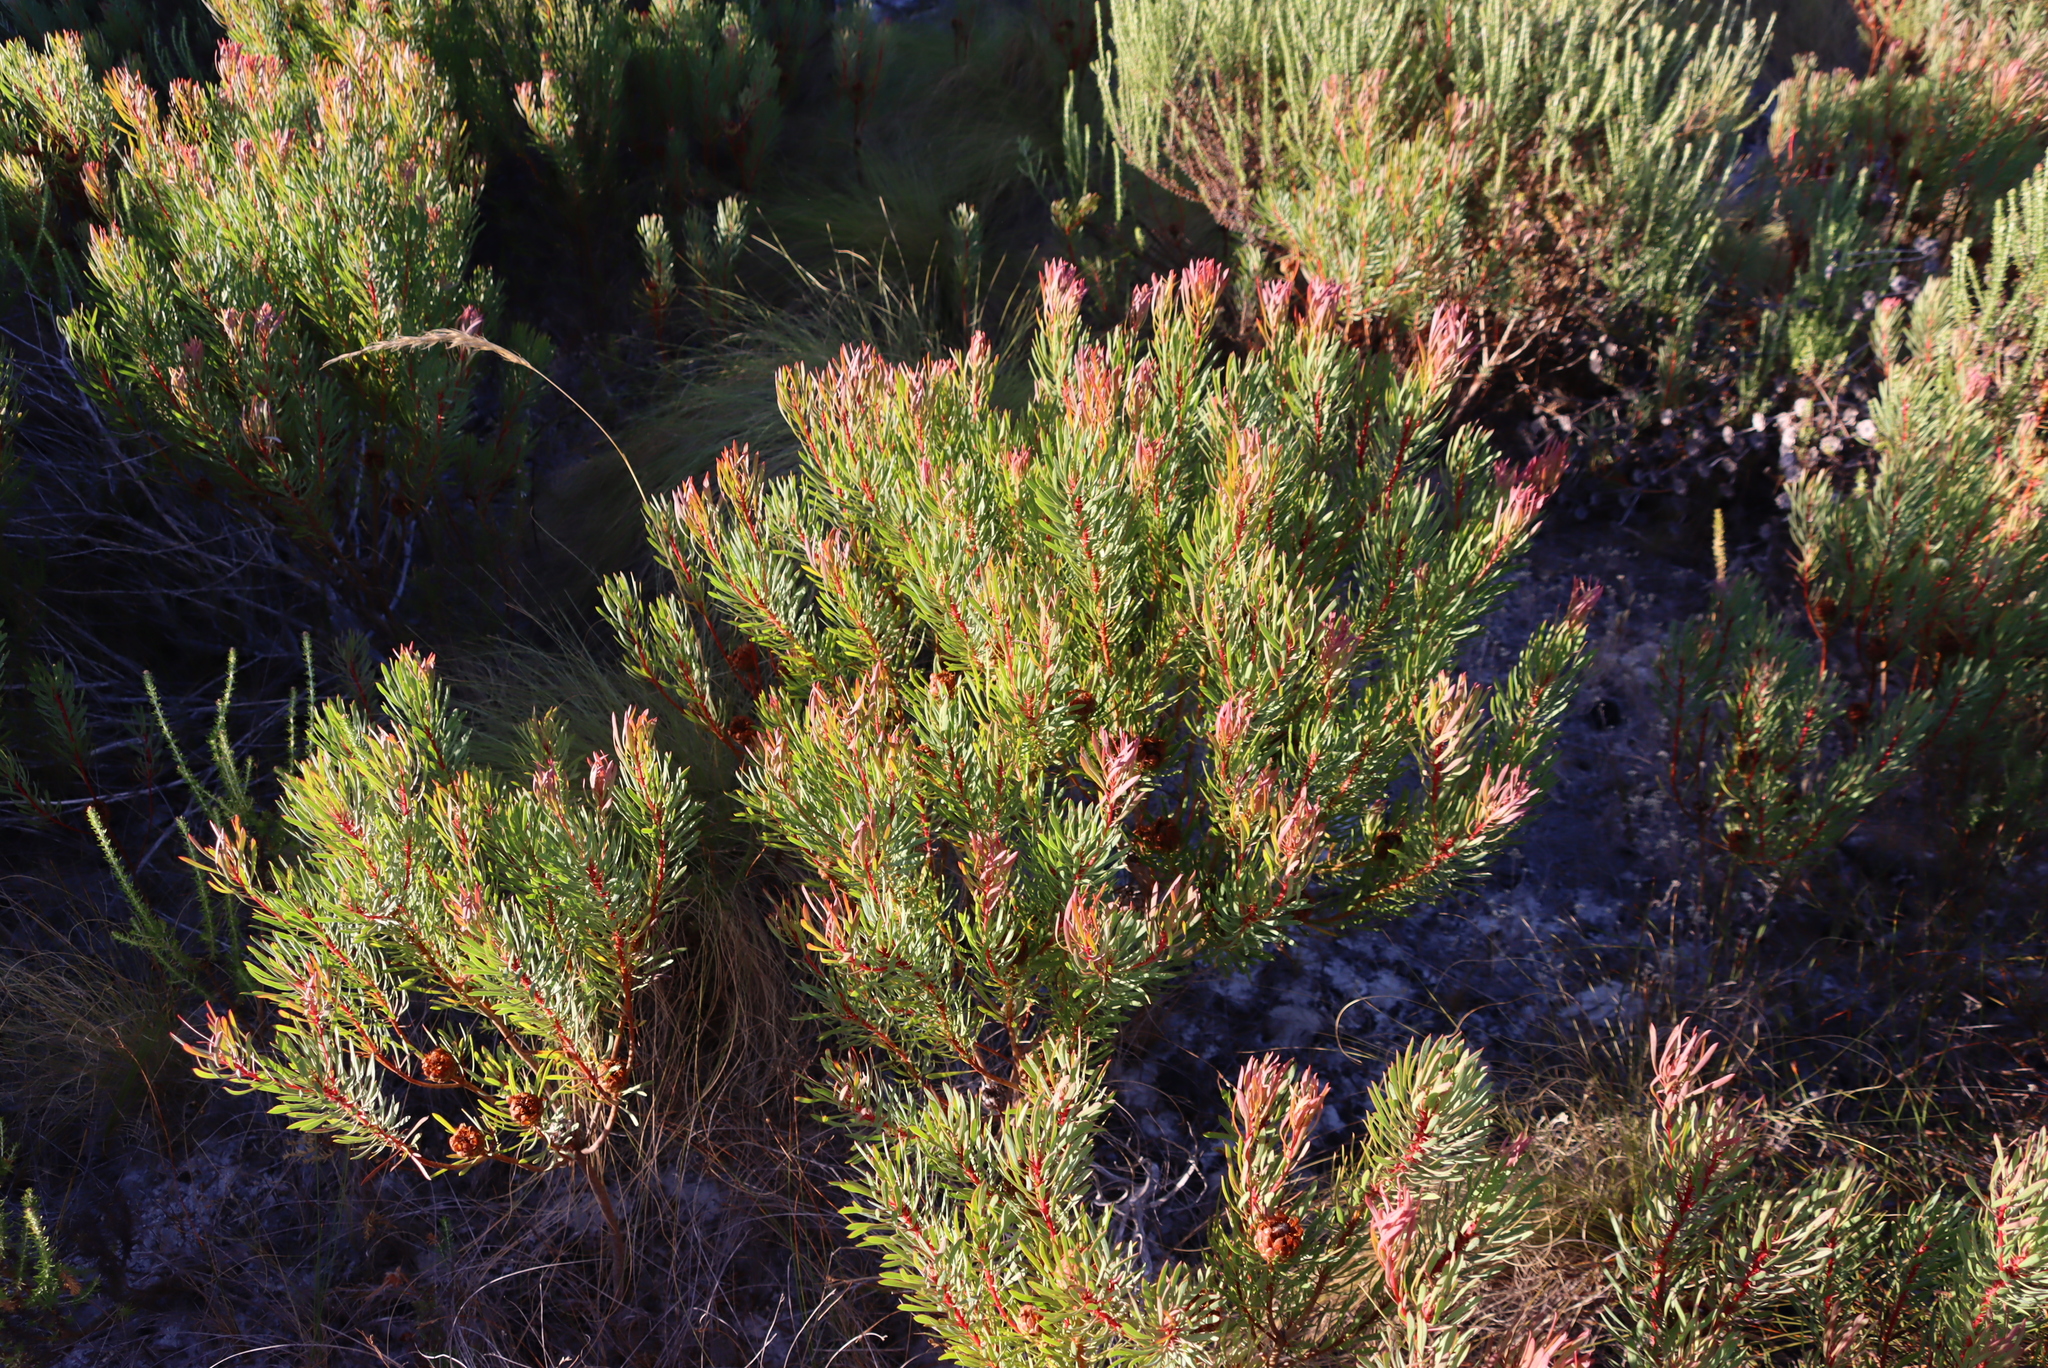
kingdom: Plantae
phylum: Tracheophyta
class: Magnoliopsida
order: Proteales
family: Proteaceae
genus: Protea
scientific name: Protea scolymocephala
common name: Thistle sugarbush
